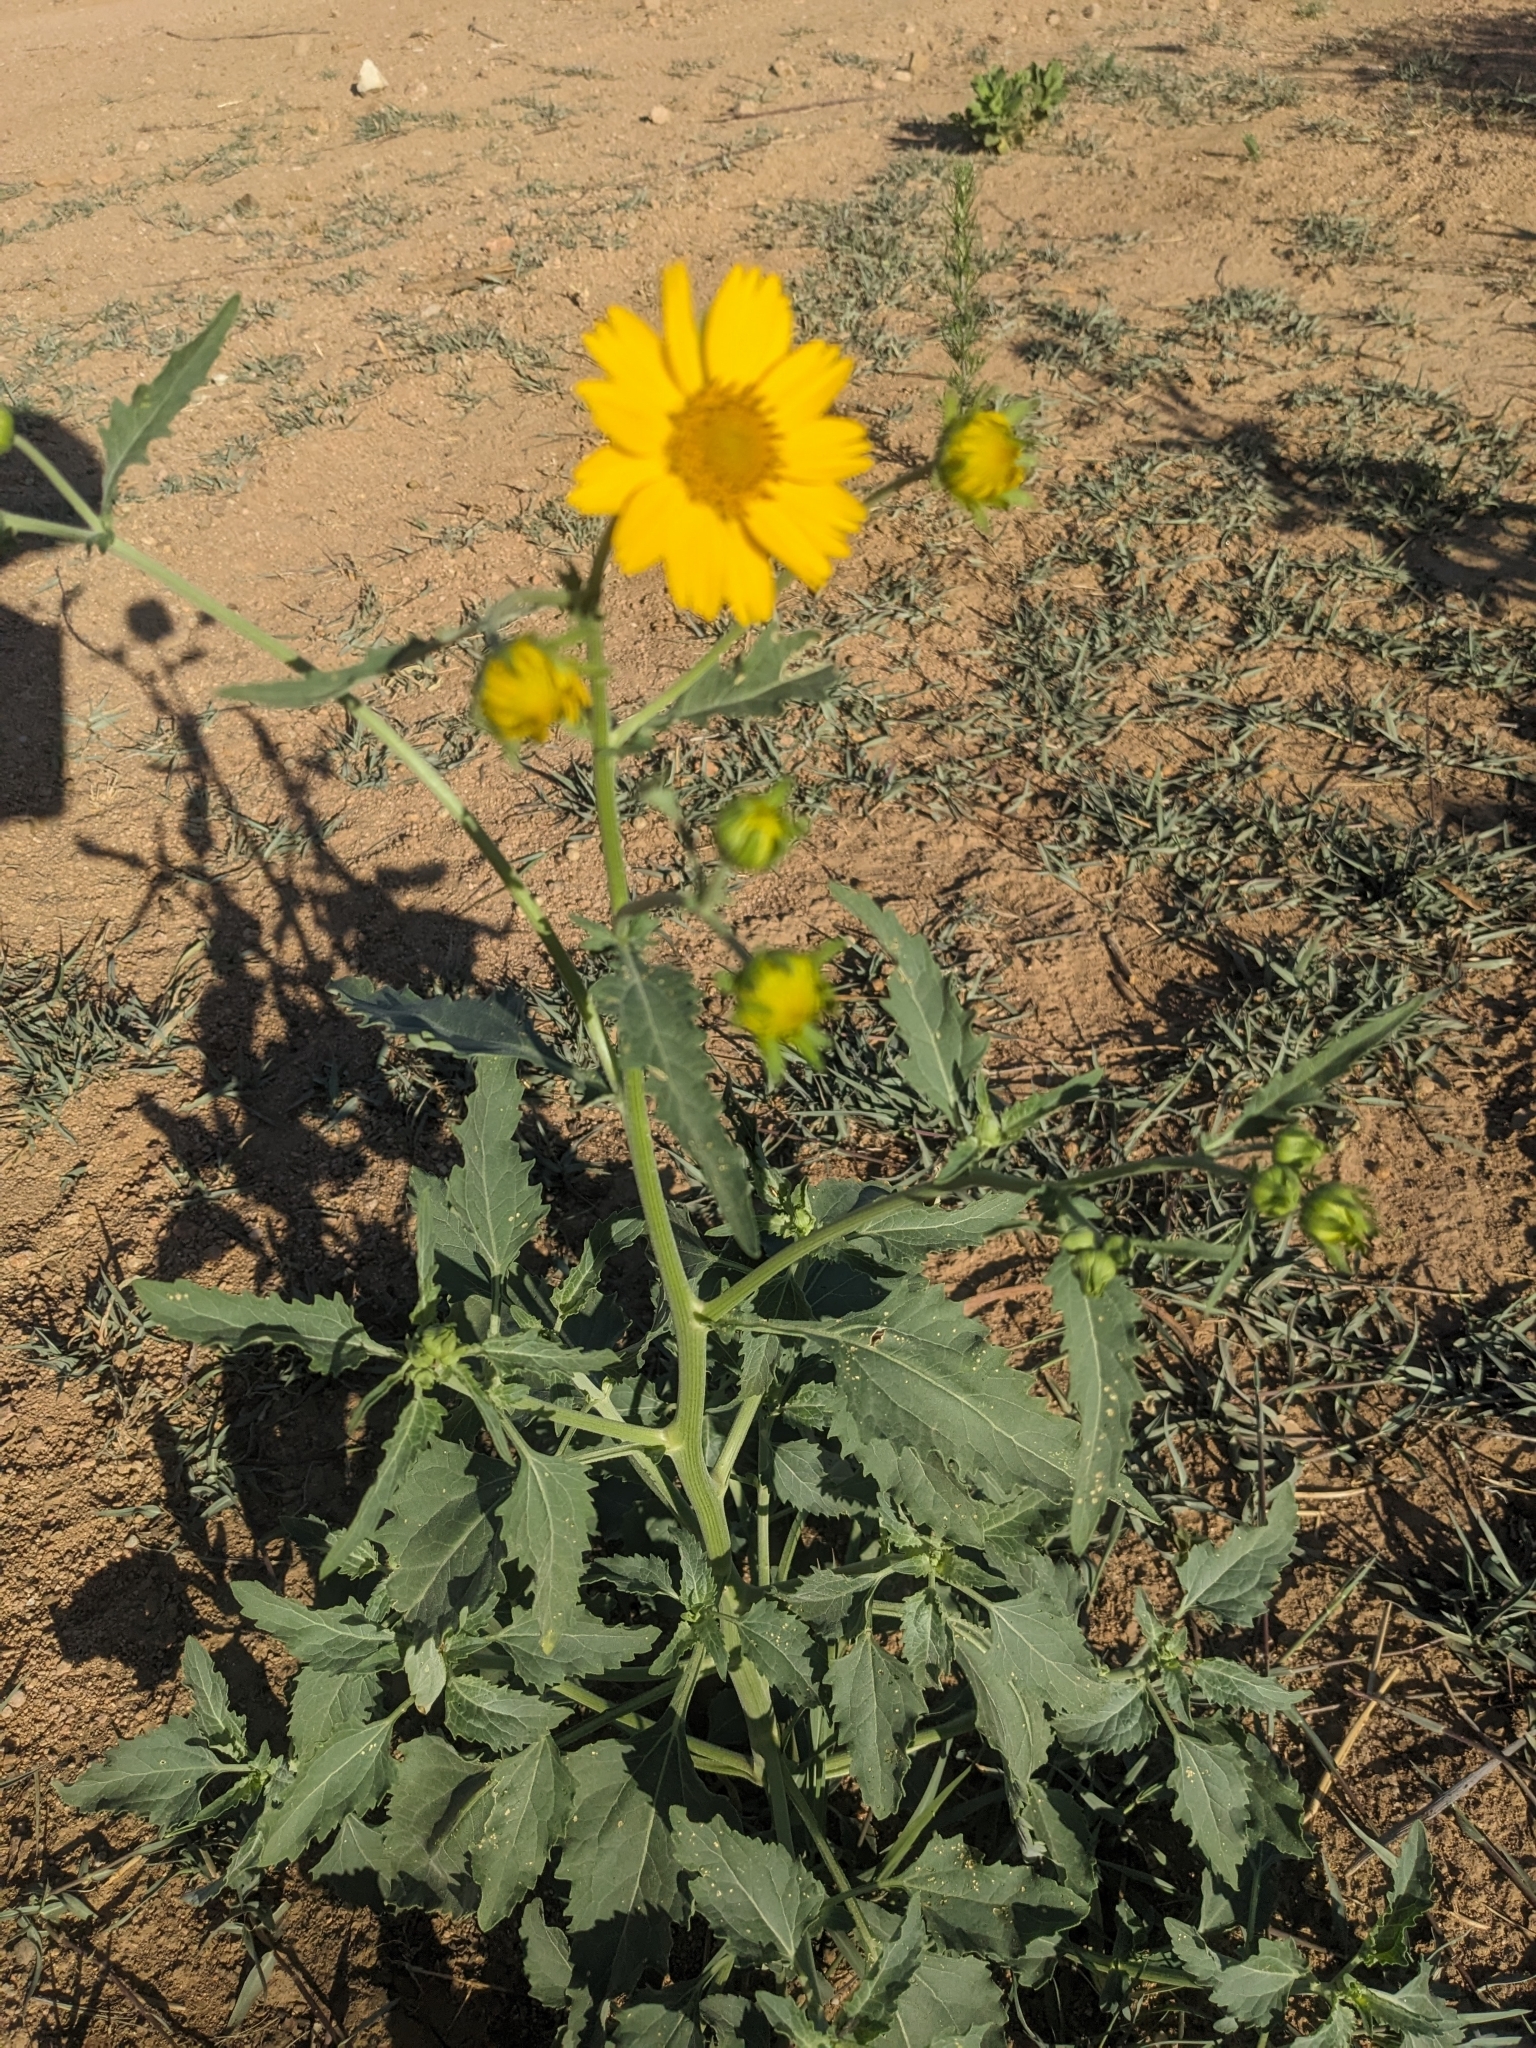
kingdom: Plantae
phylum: Tracheophyta
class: Magnoliopsida
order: Asterales
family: Asteraceae
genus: Verbesina
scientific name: Verbesina encelioides
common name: Golden crownbeard
